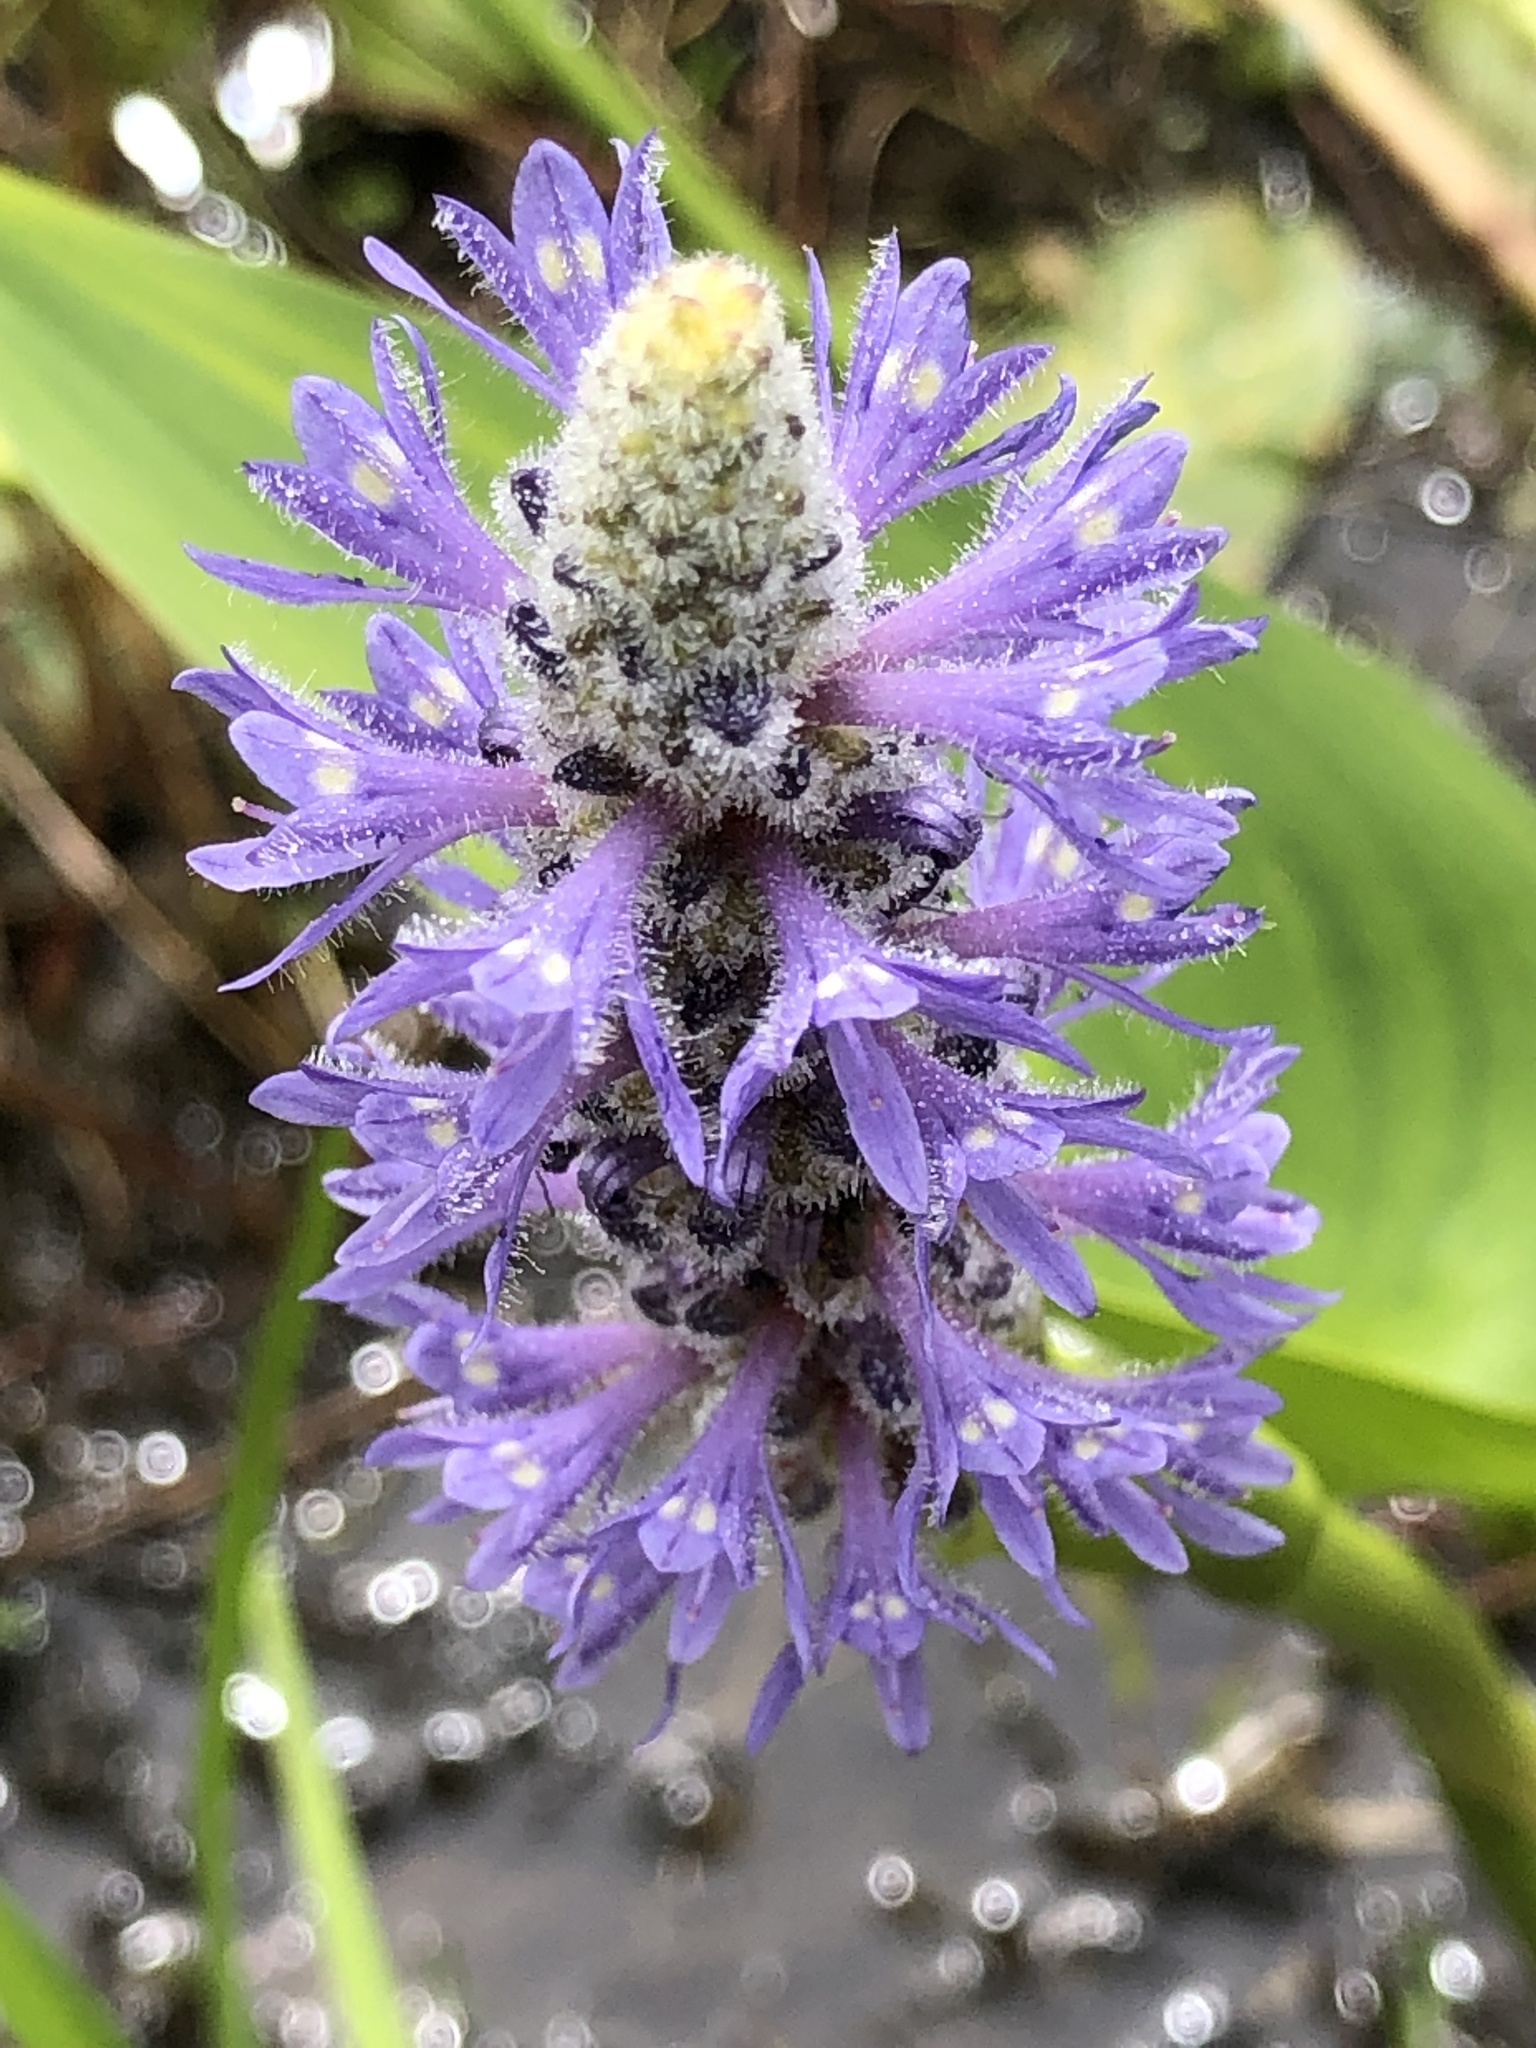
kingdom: Plantae
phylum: Tracheophyta
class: Liliopsida
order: Commelinales
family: Pontederiaceae
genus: Pontederia
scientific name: Pontederia cordata
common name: Pickerelweed
